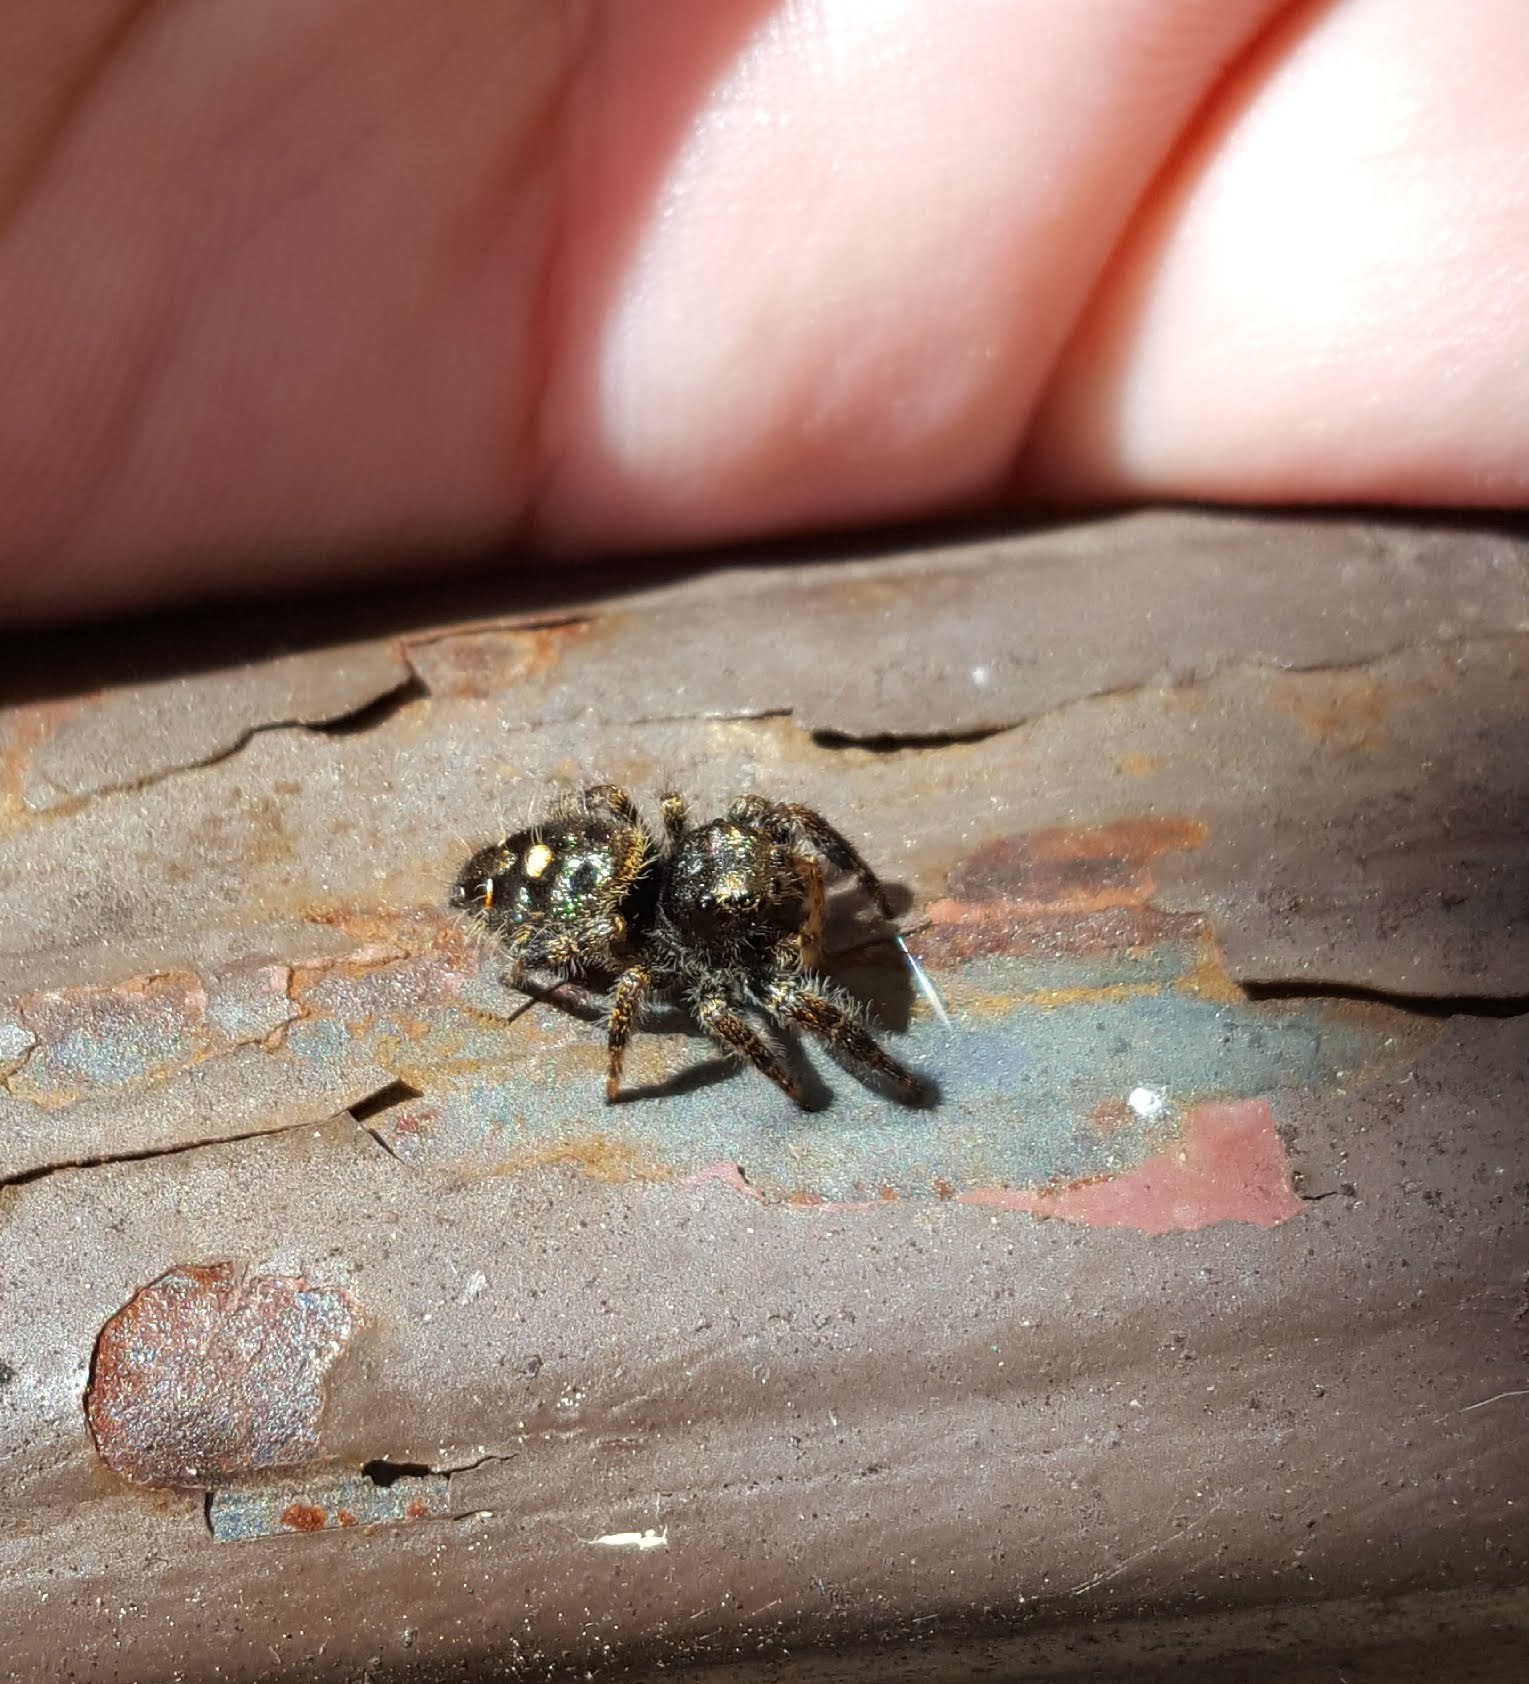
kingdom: Animalia
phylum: Arthropoda
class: Arachnida
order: Araneae
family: Salticidae
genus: Phidippus
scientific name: Phidippus audax
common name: Bold jumper
